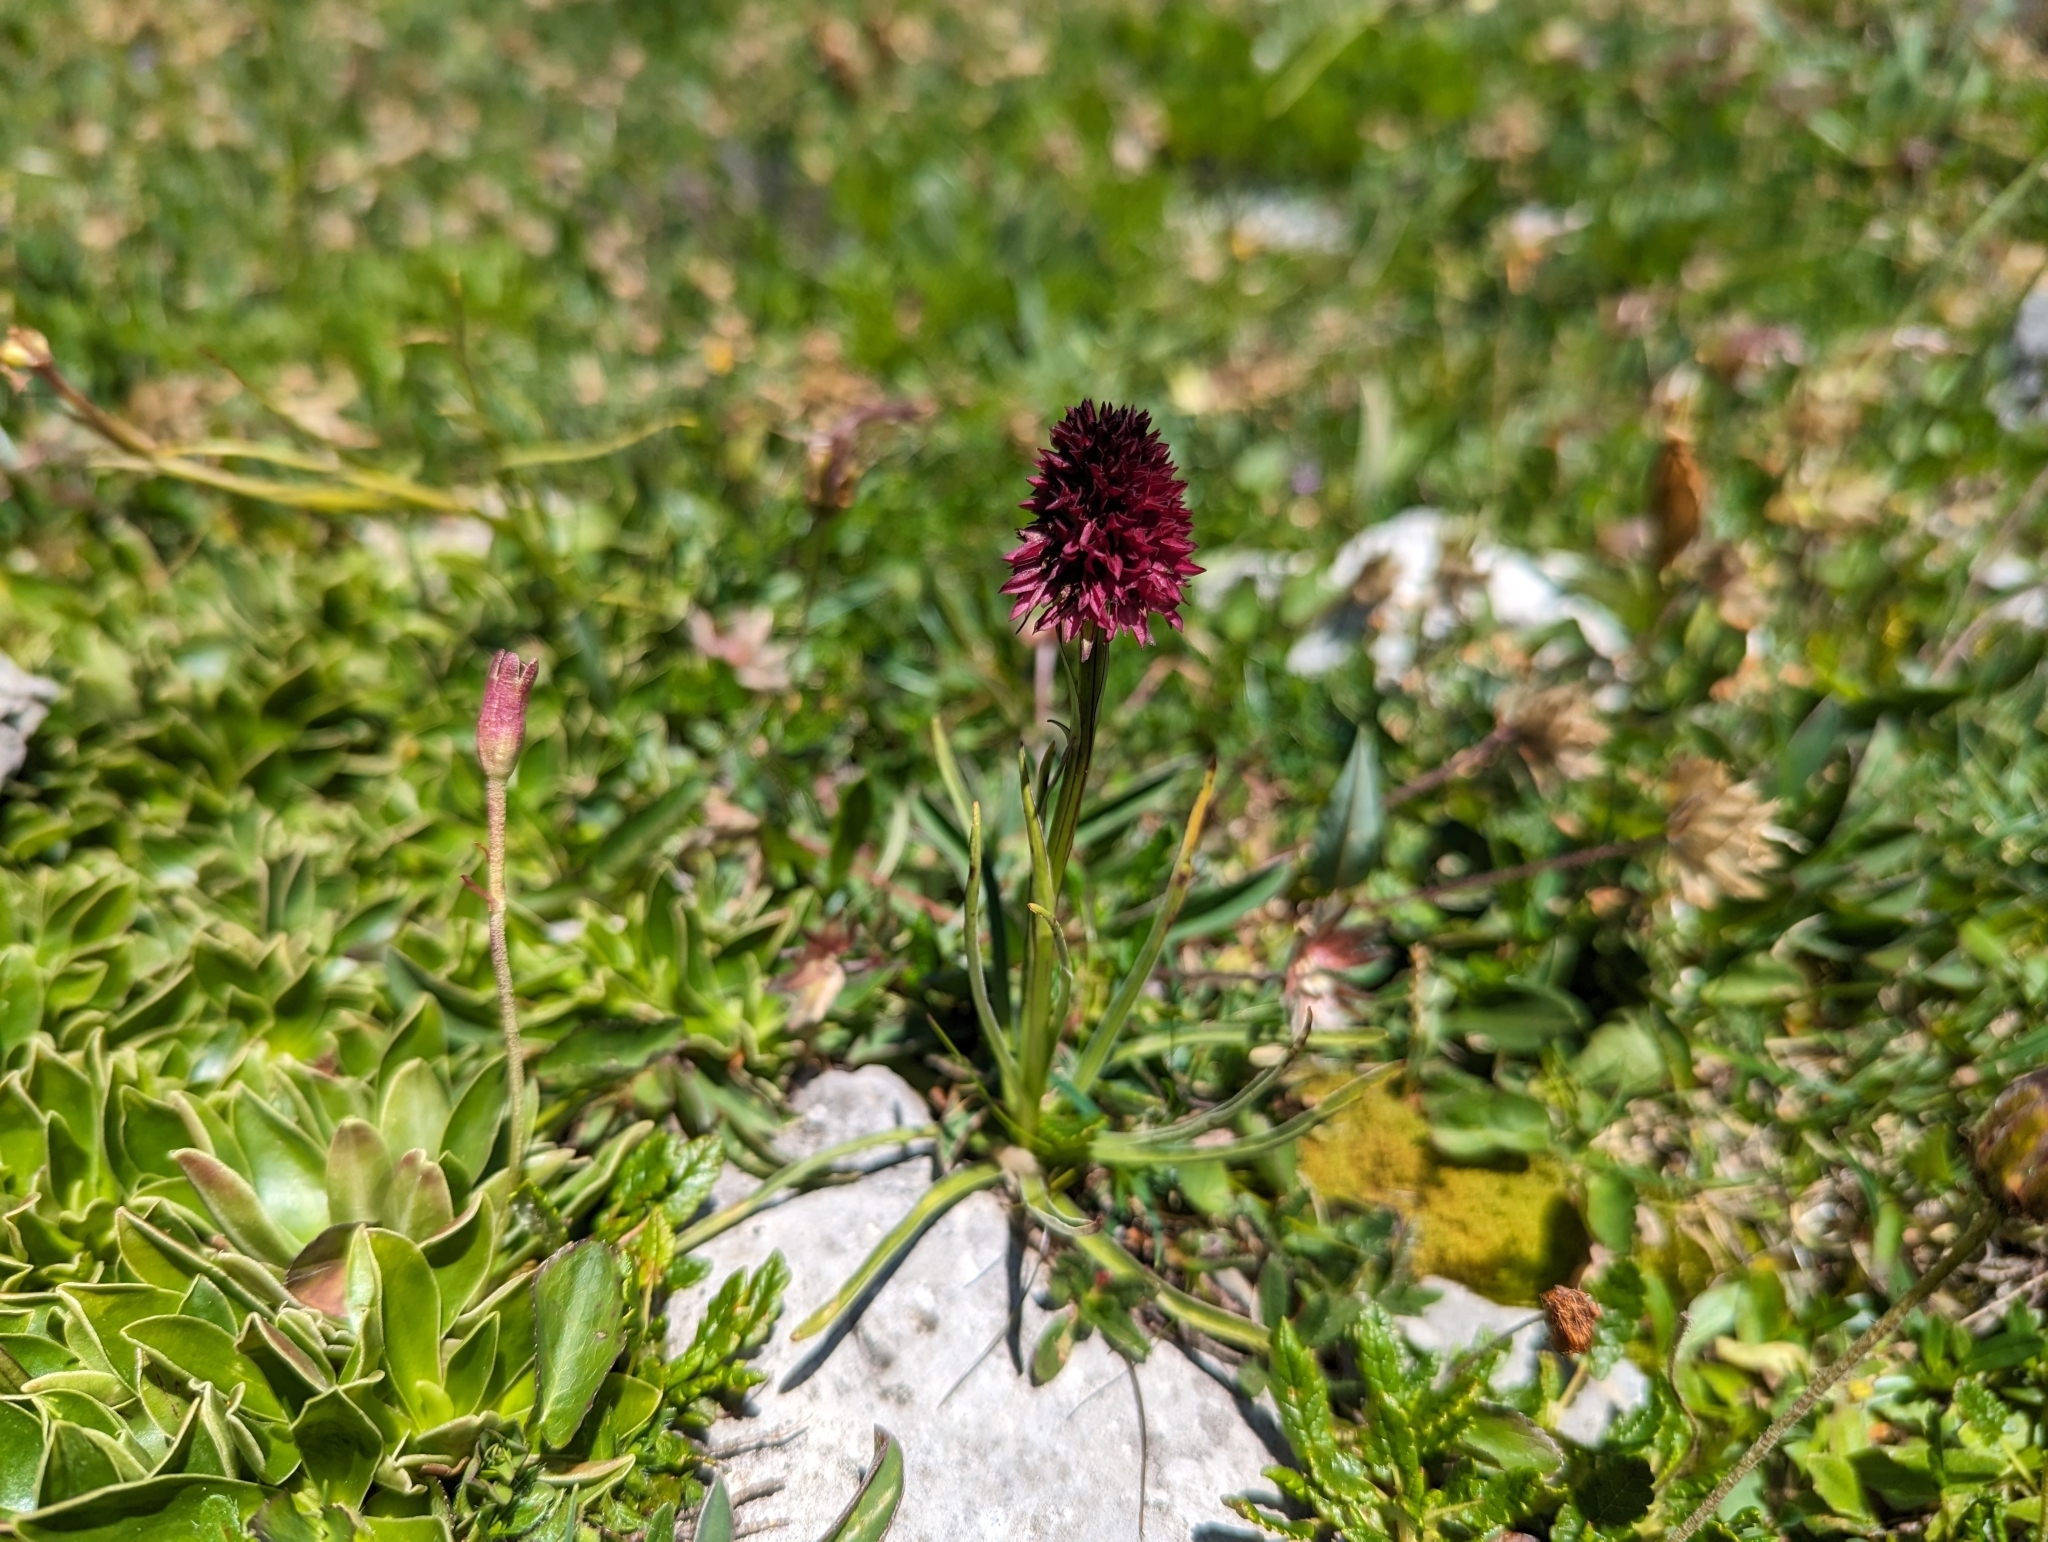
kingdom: Plantae
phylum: Tracheophyta
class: Liliopsida
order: Asparagales
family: Orchidaceae
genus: Gymnadenia
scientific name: Gymnadenia rhellicani
